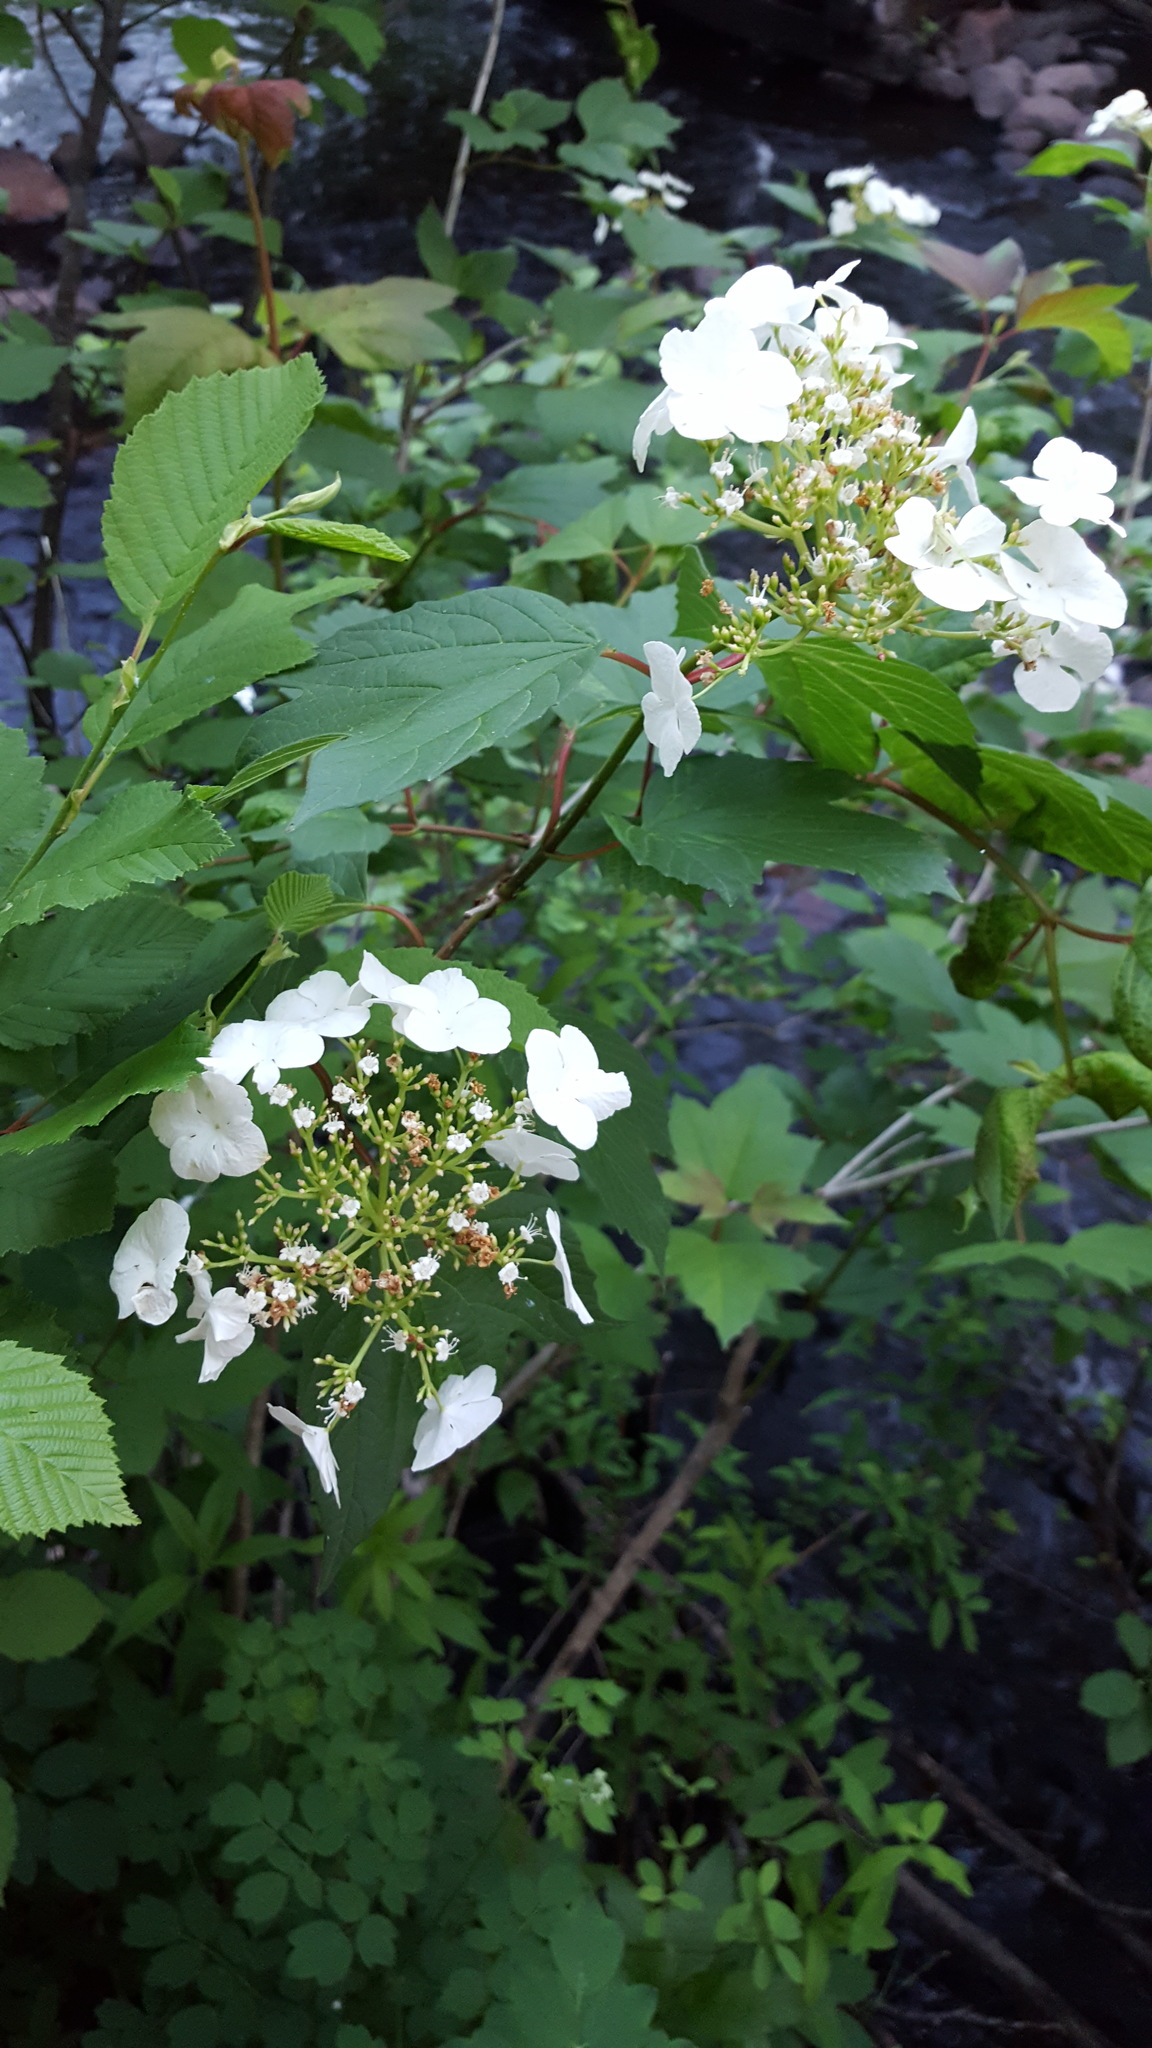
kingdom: Plantae
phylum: Tracheophyta
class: Magnoliopsida
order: Dipsacales
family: Viburnaceae
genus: Viburnum
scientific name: Viburnum trilobum
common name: American cranberrybush
